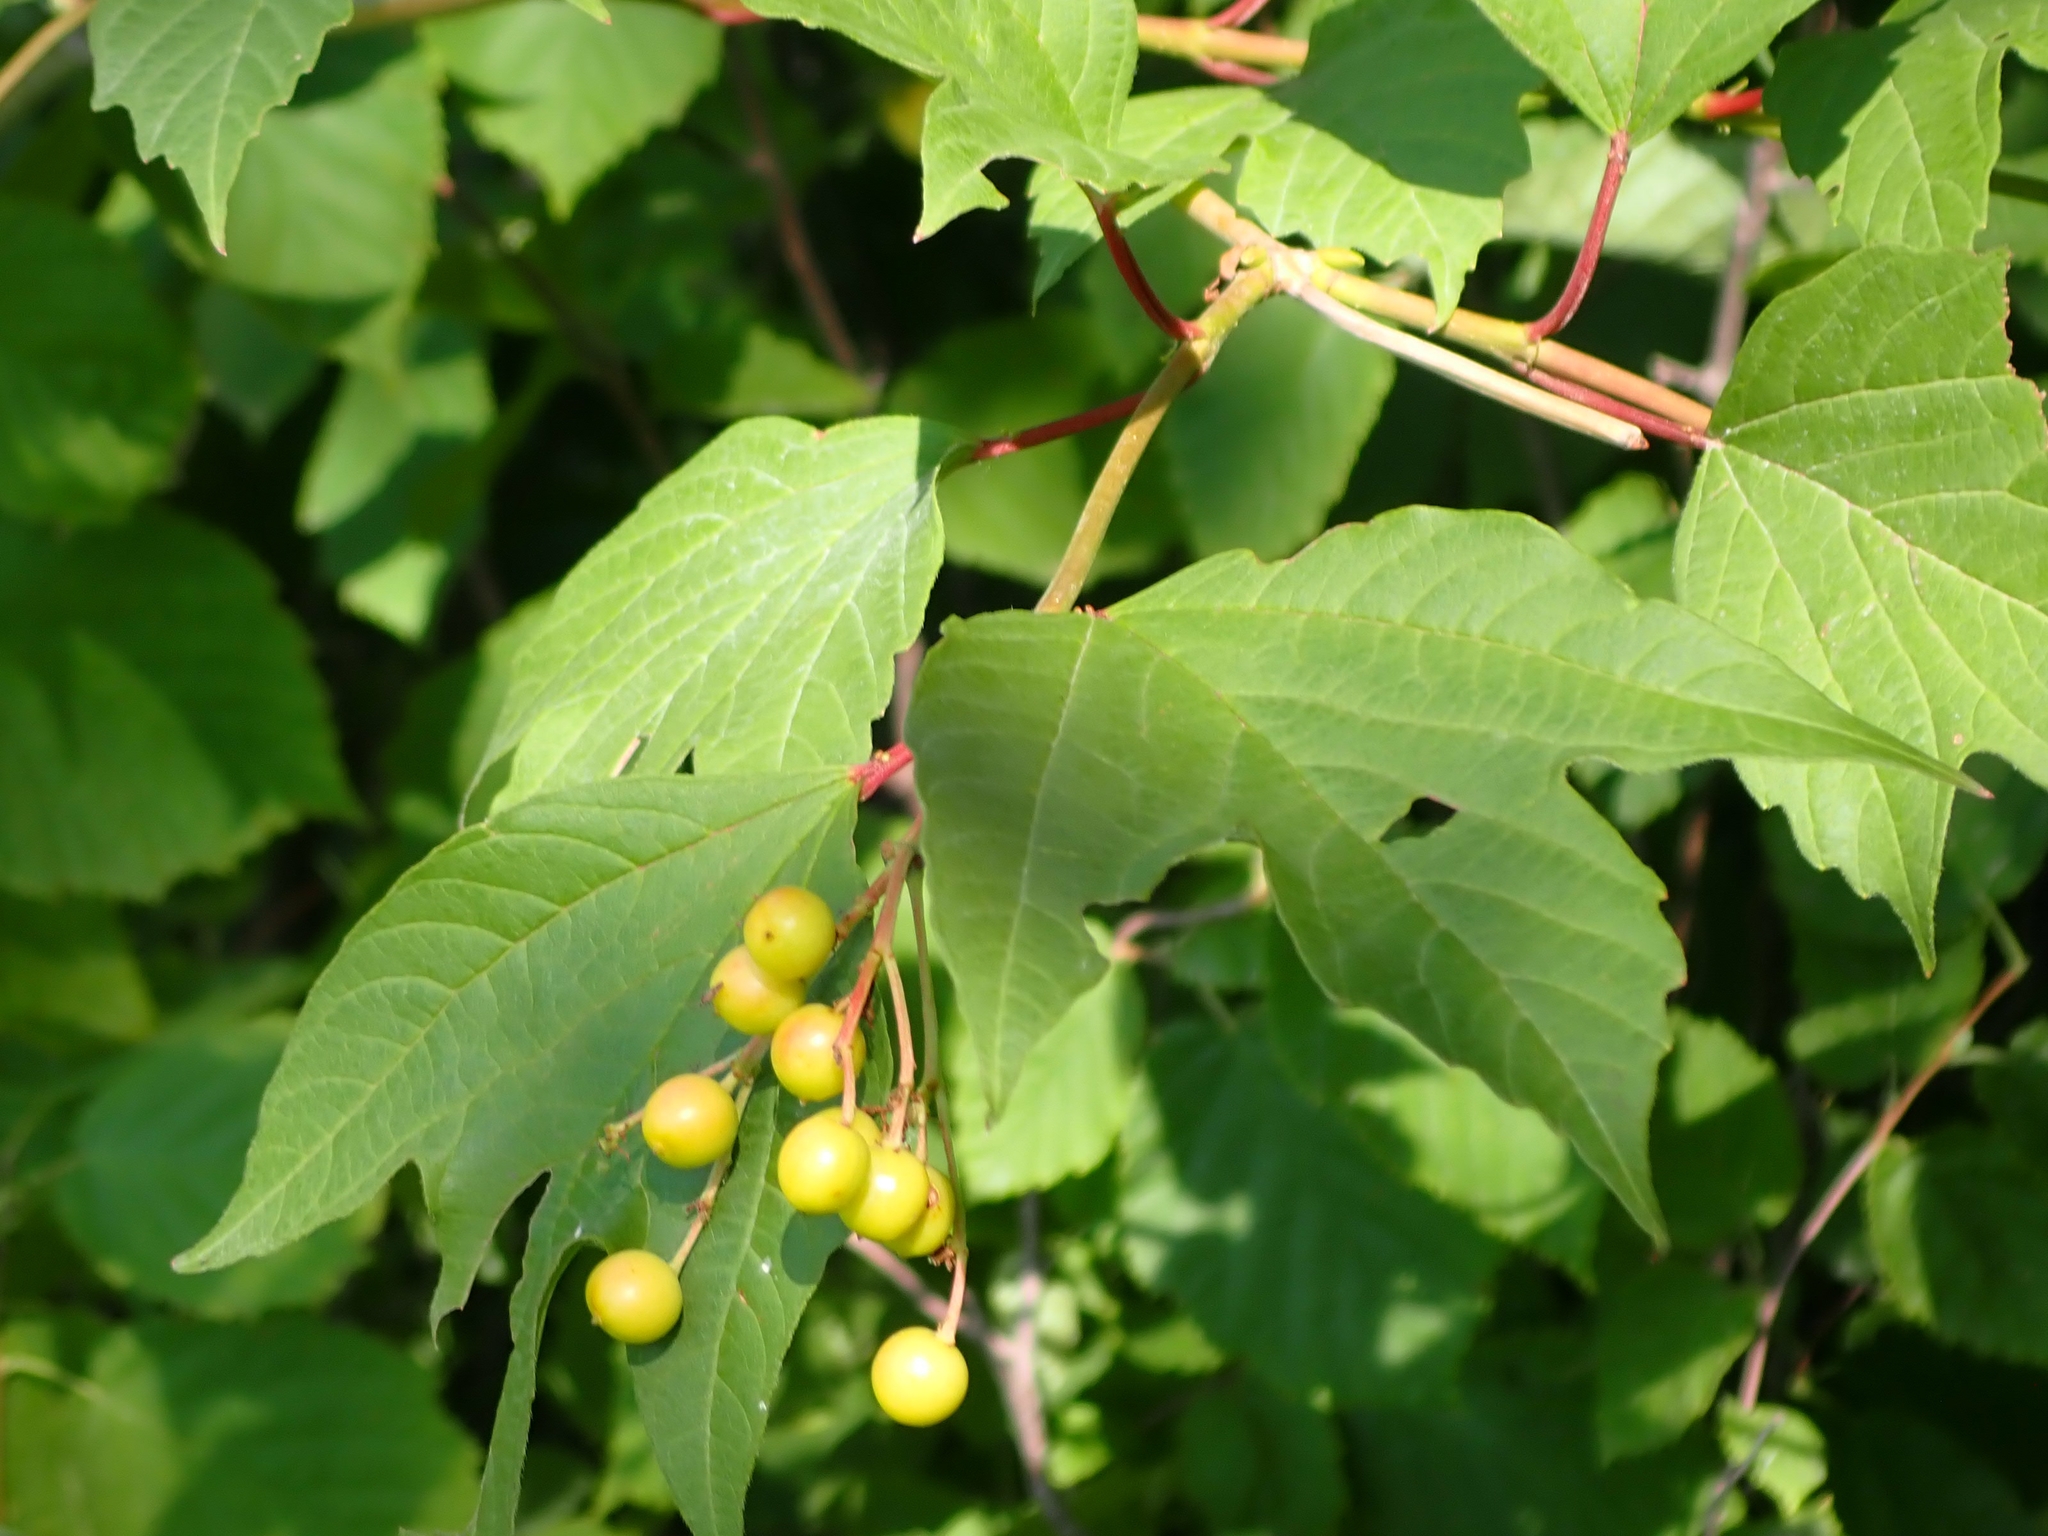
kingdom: Plantae
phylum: Tracheophyta
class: Magnoliopsida
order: Dipsacales
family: Viburnaceae
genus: Viburnum
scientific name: Viburnum trilobum
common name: American cranberrybush
